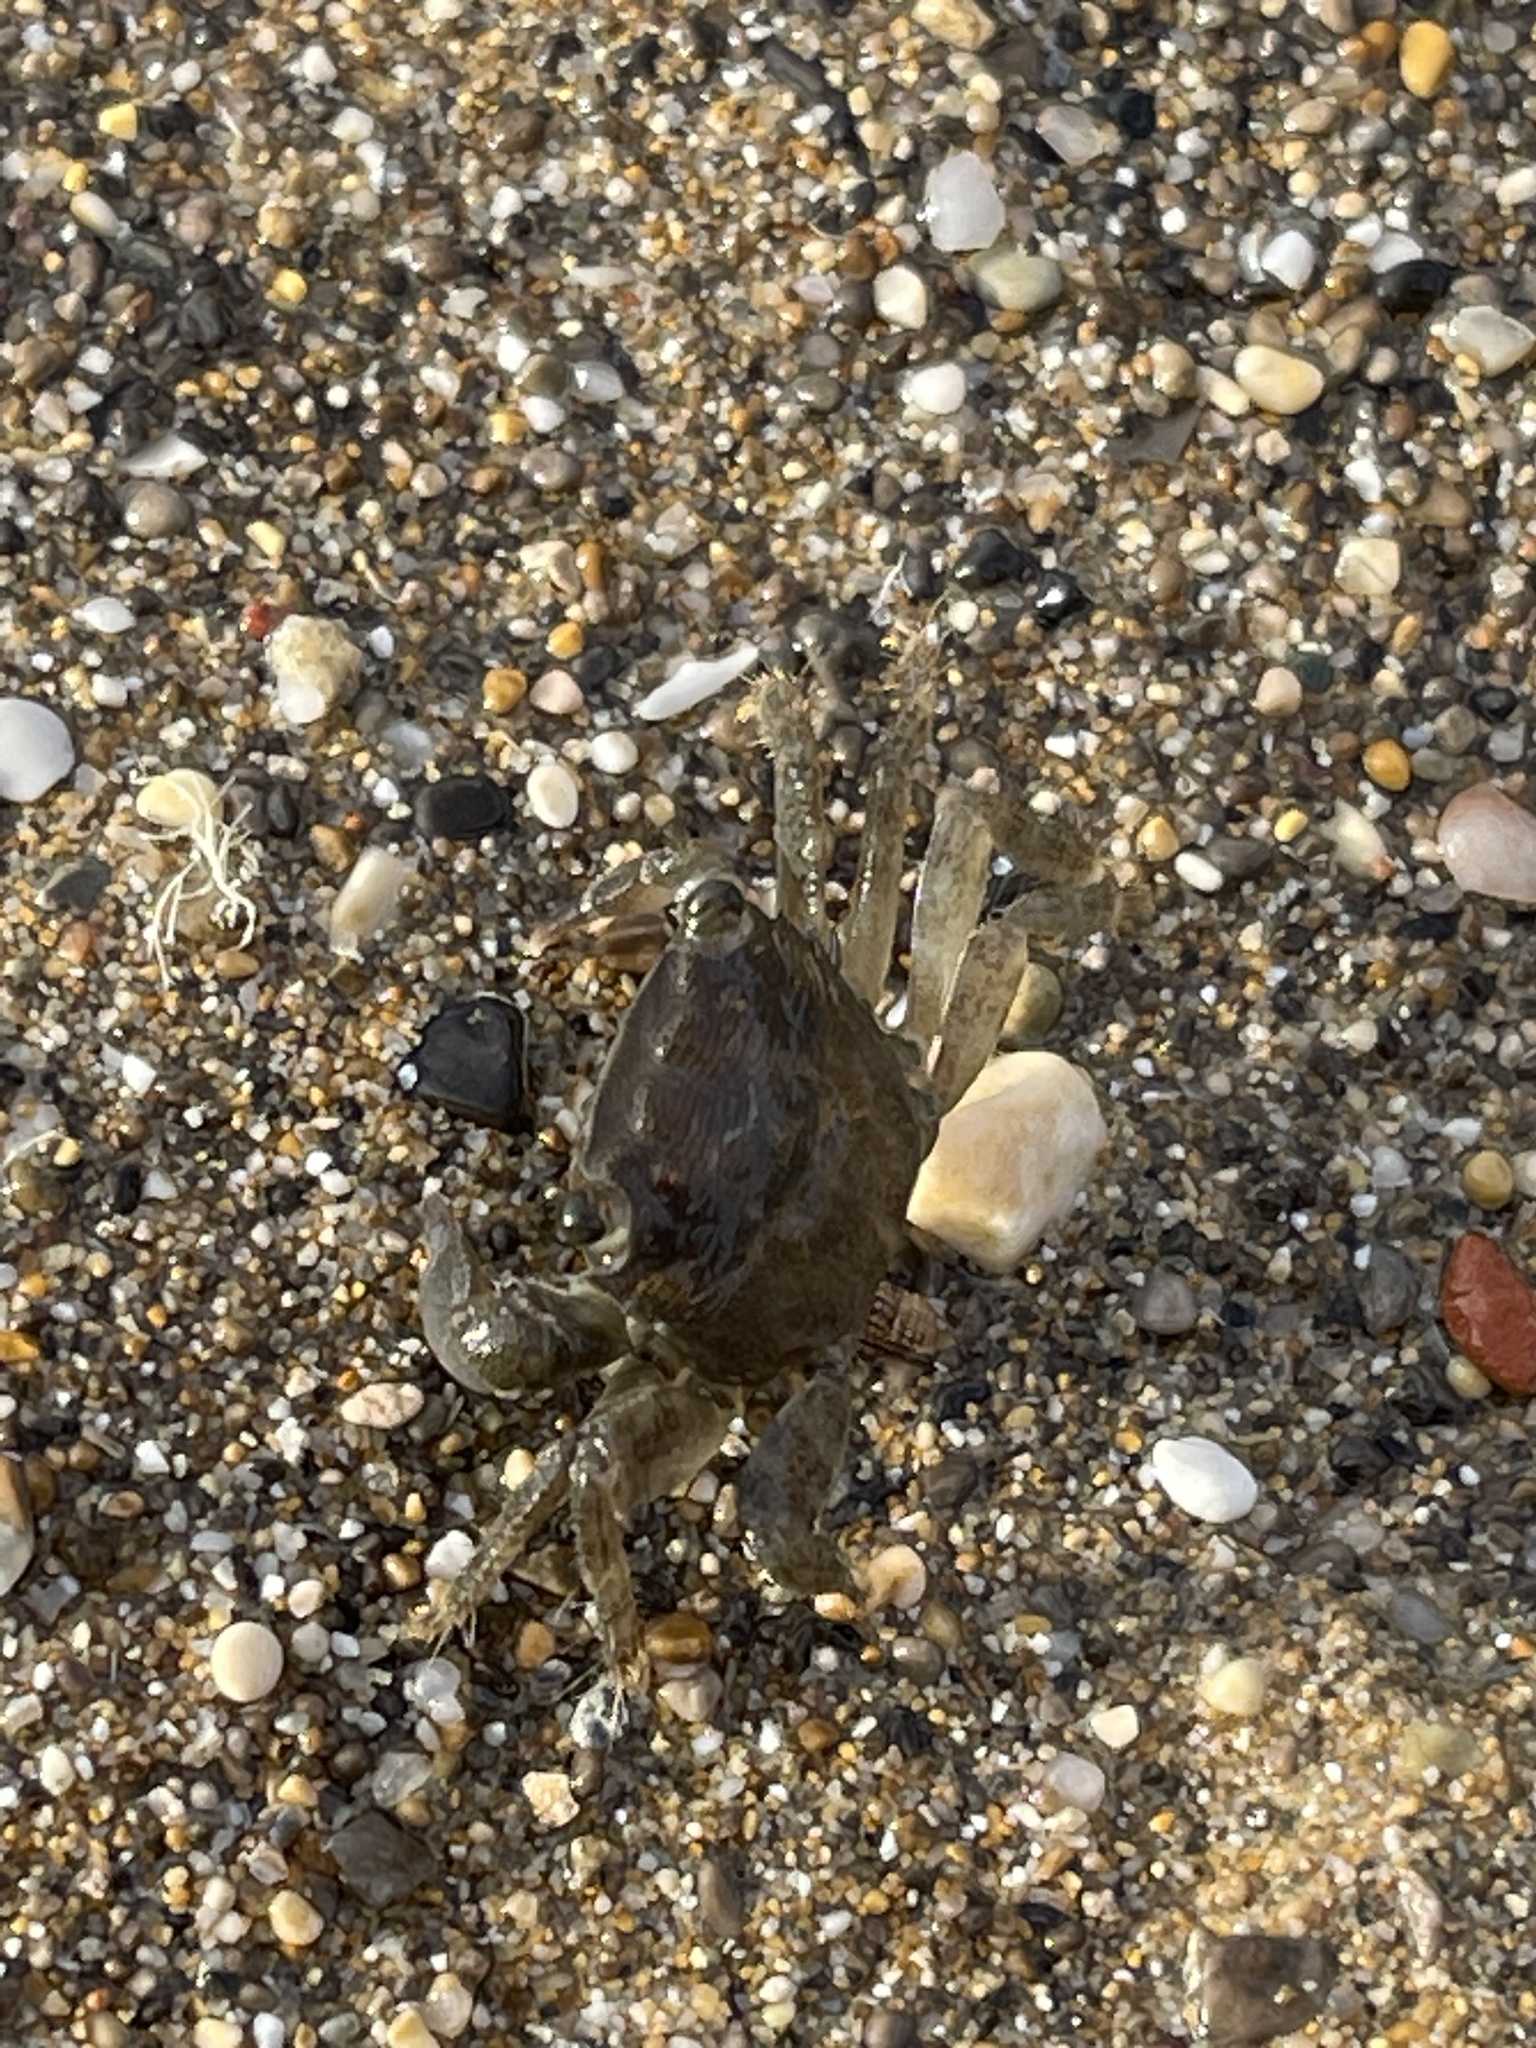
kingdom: Animalia
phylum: Arthropoda
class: Malacostraca
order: Decapoda
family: Grapsidae
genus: Pachygrapsus
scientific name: Pachygrapsus marmoratus
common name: Marbled rock crab
